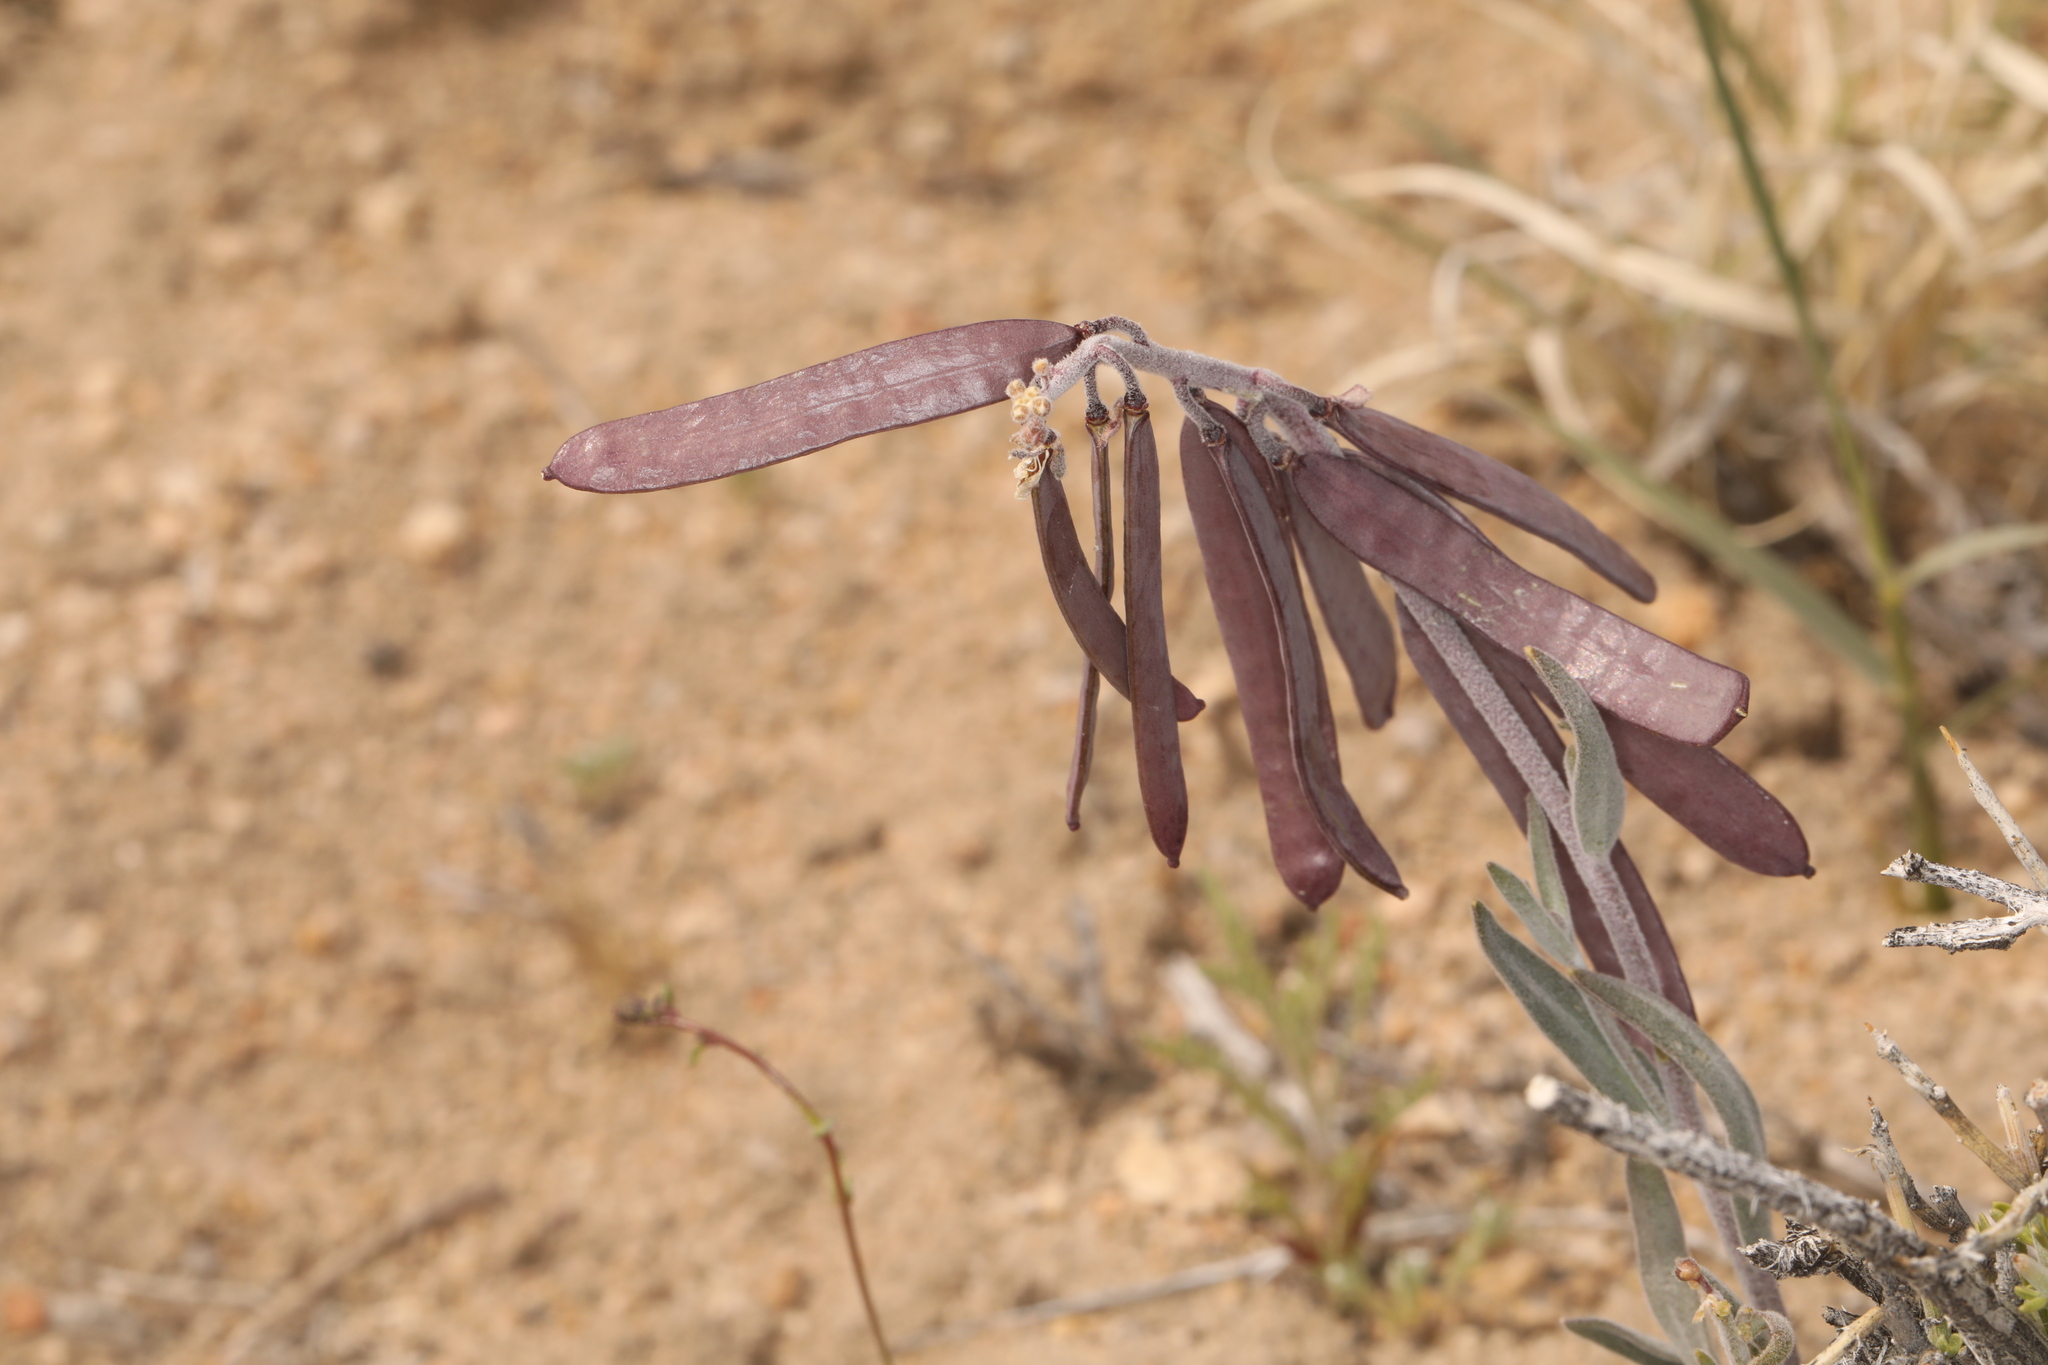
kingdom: Plantae
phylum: Tracheophyta
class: Magnoliopsida
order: Brassicales
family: Brassicaceae
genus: Boechera
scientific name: Boechera glaucovalvula
